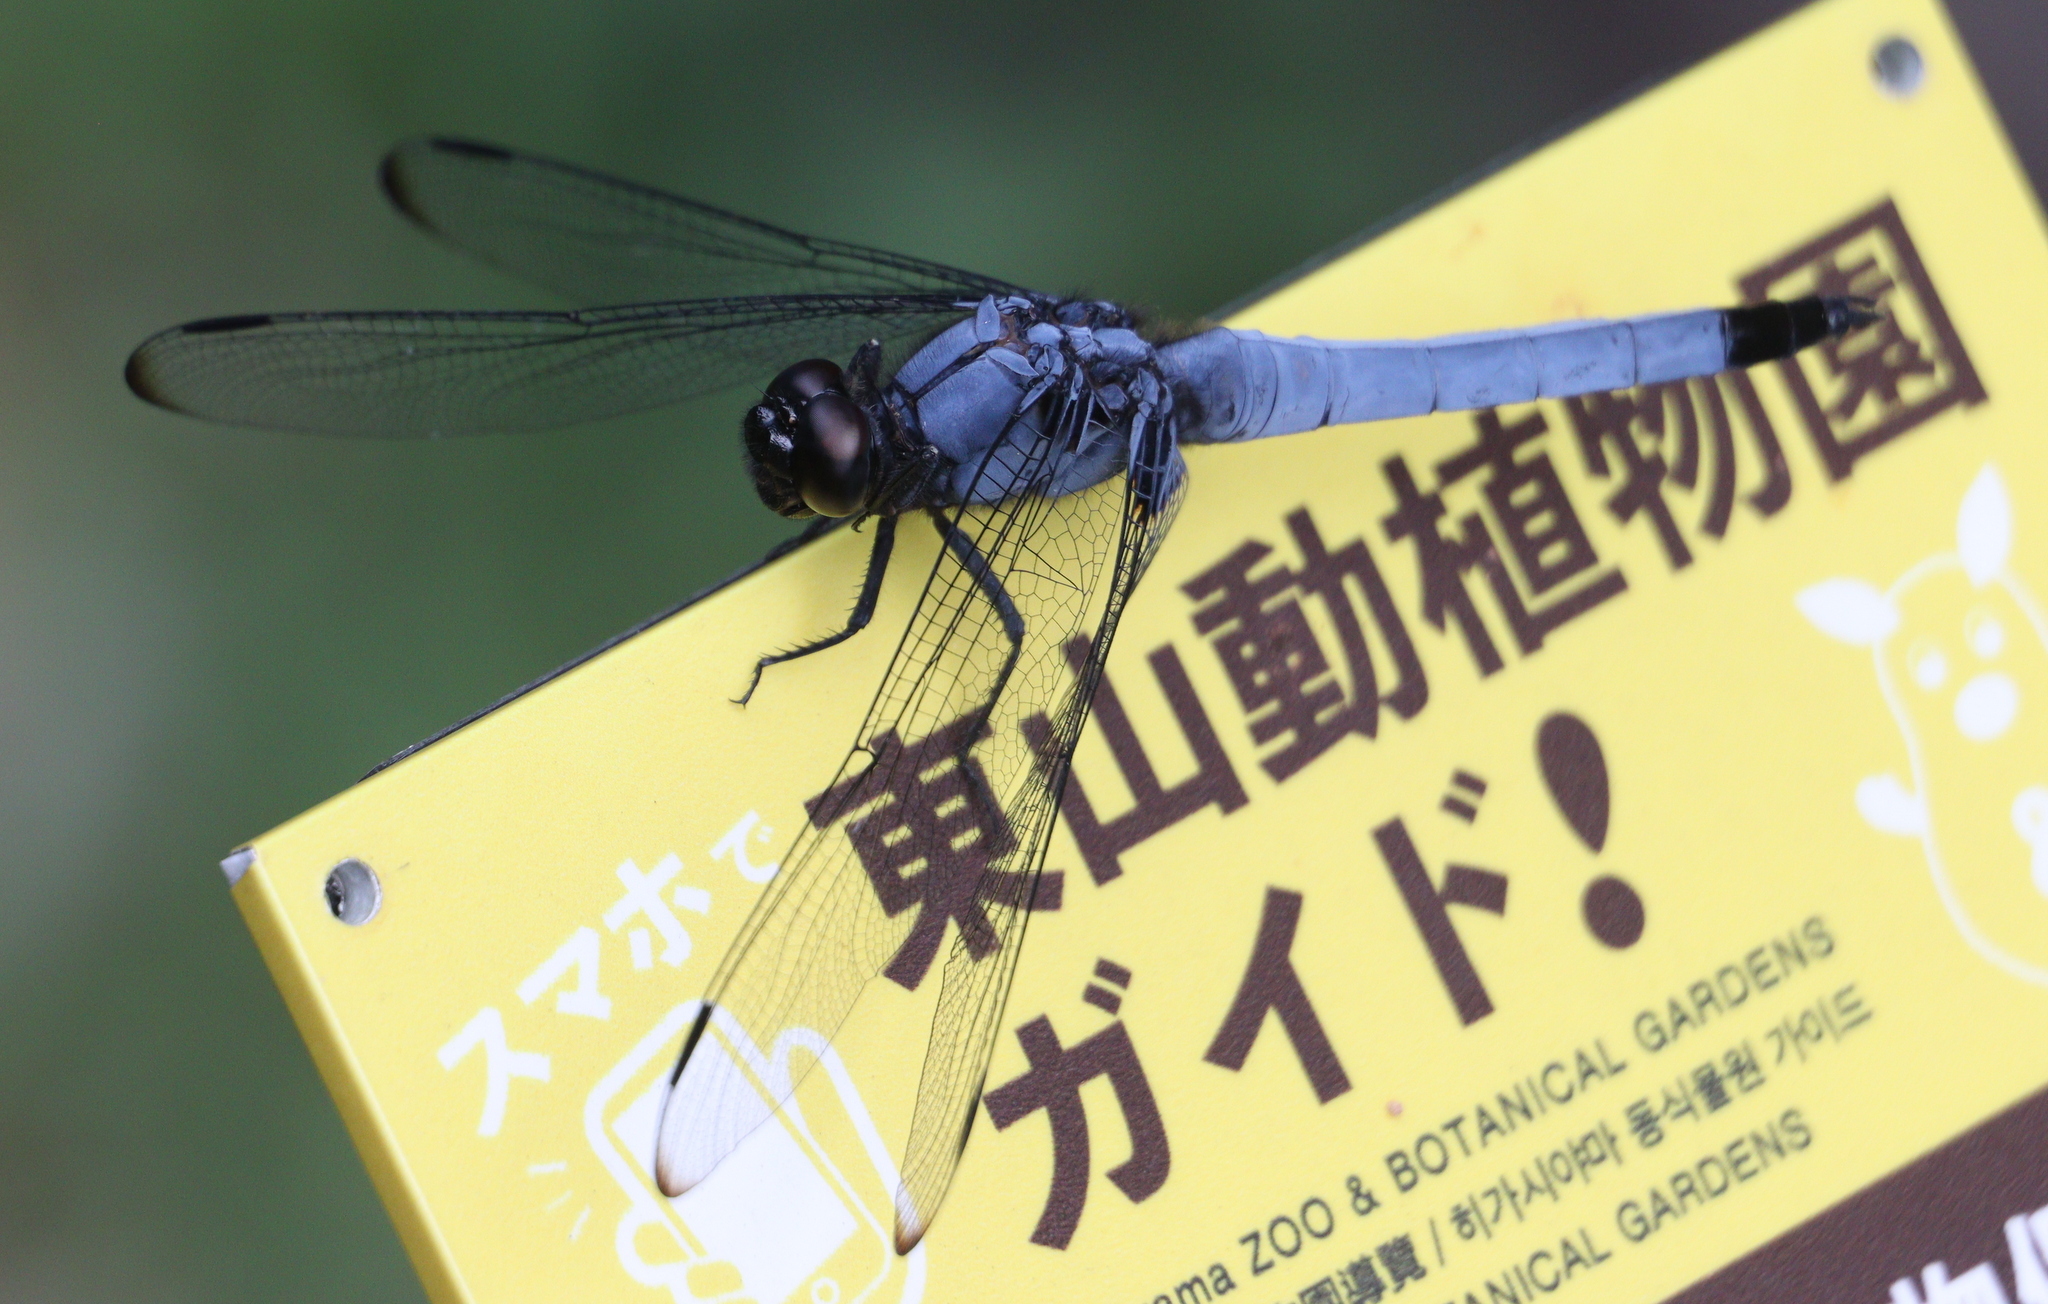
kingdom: Animalia
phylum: Arthropoda
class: Insecta
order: Odonata
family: Libellulidae
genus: Orthetrum
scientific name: Orthetrum melania
